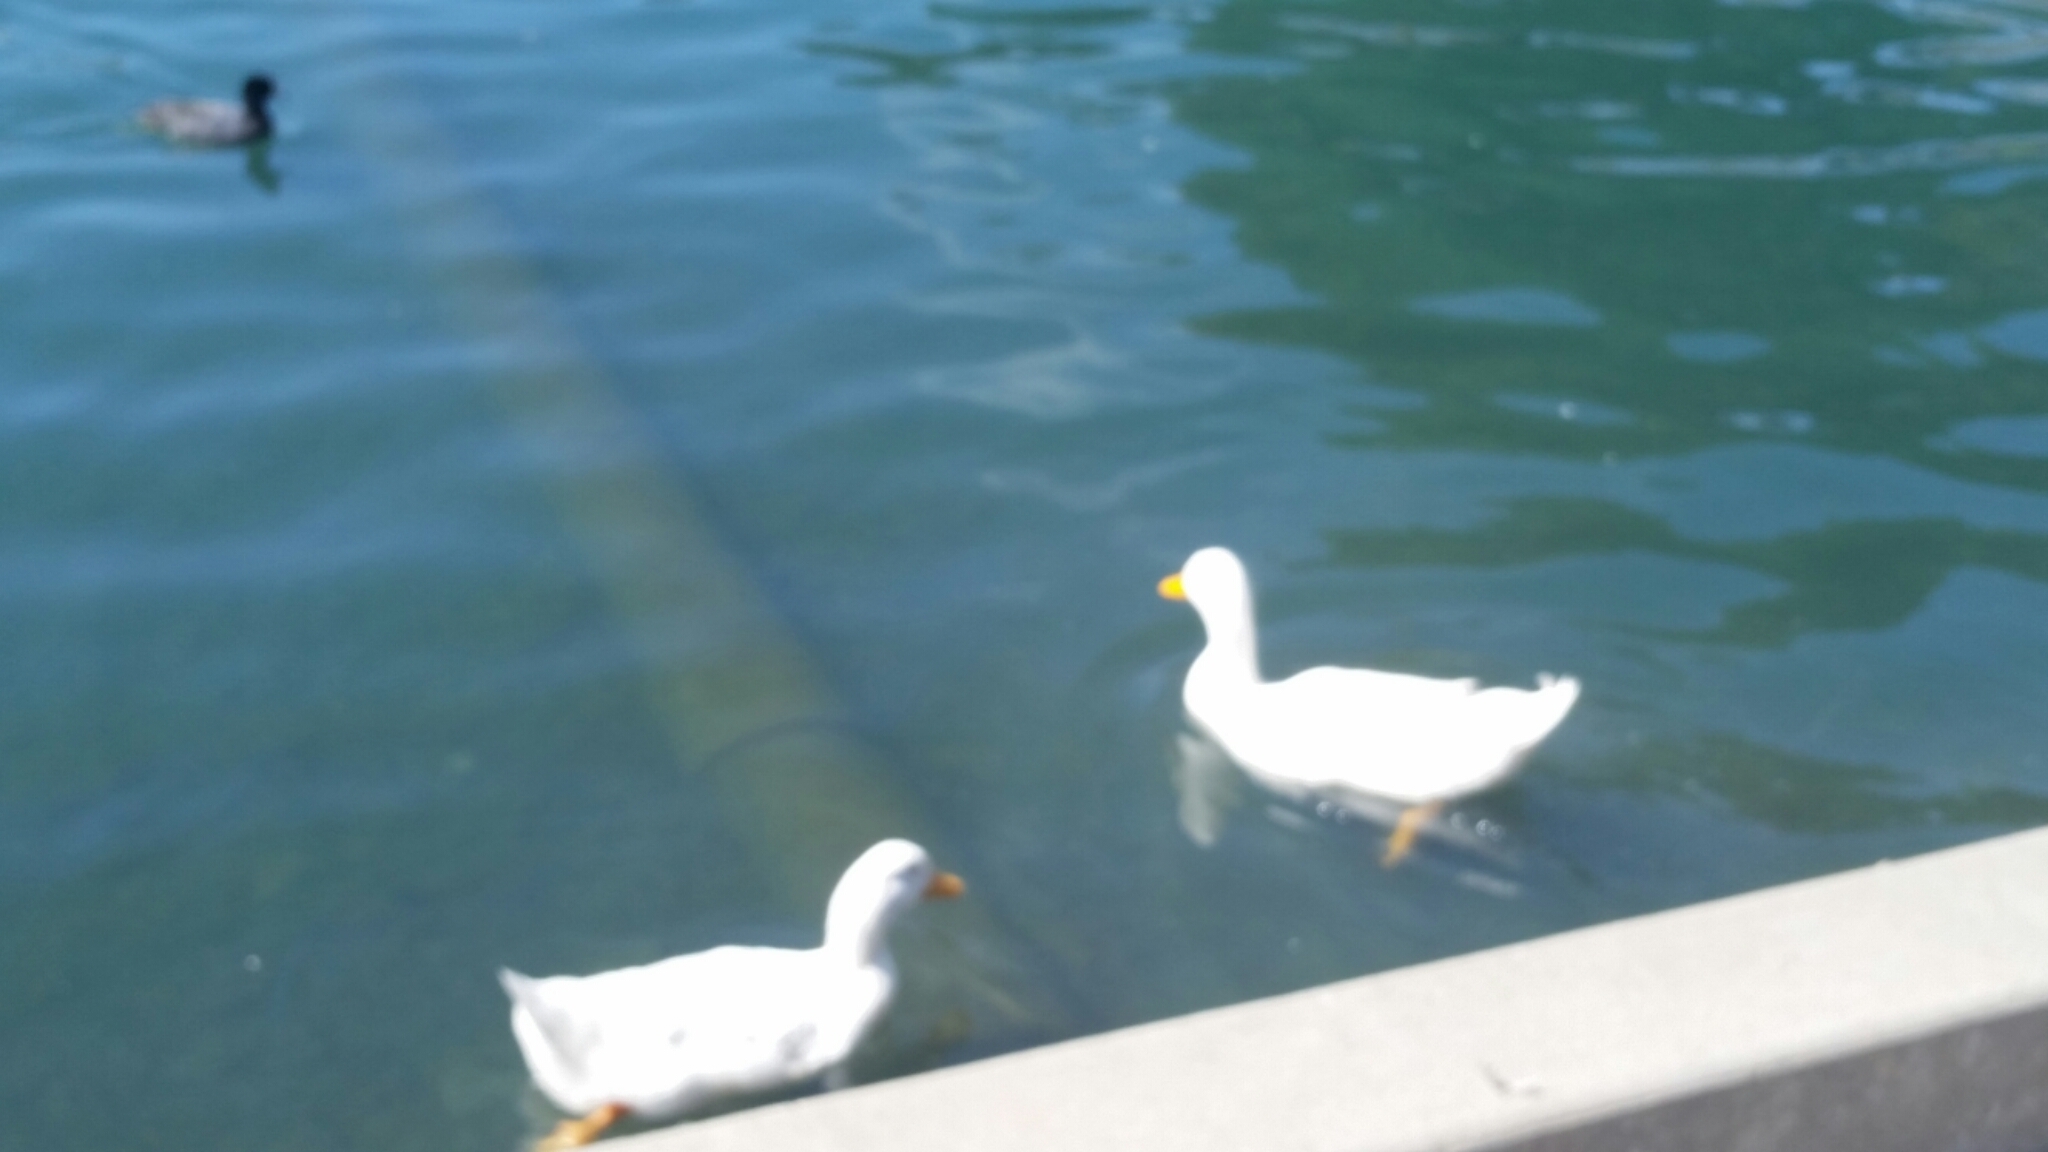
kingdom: Animalia
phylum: Chordata
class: Aves
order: Anseriformes
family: Anatidae
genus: Anas
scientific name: Anas platyrhynchos
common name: Mallard
